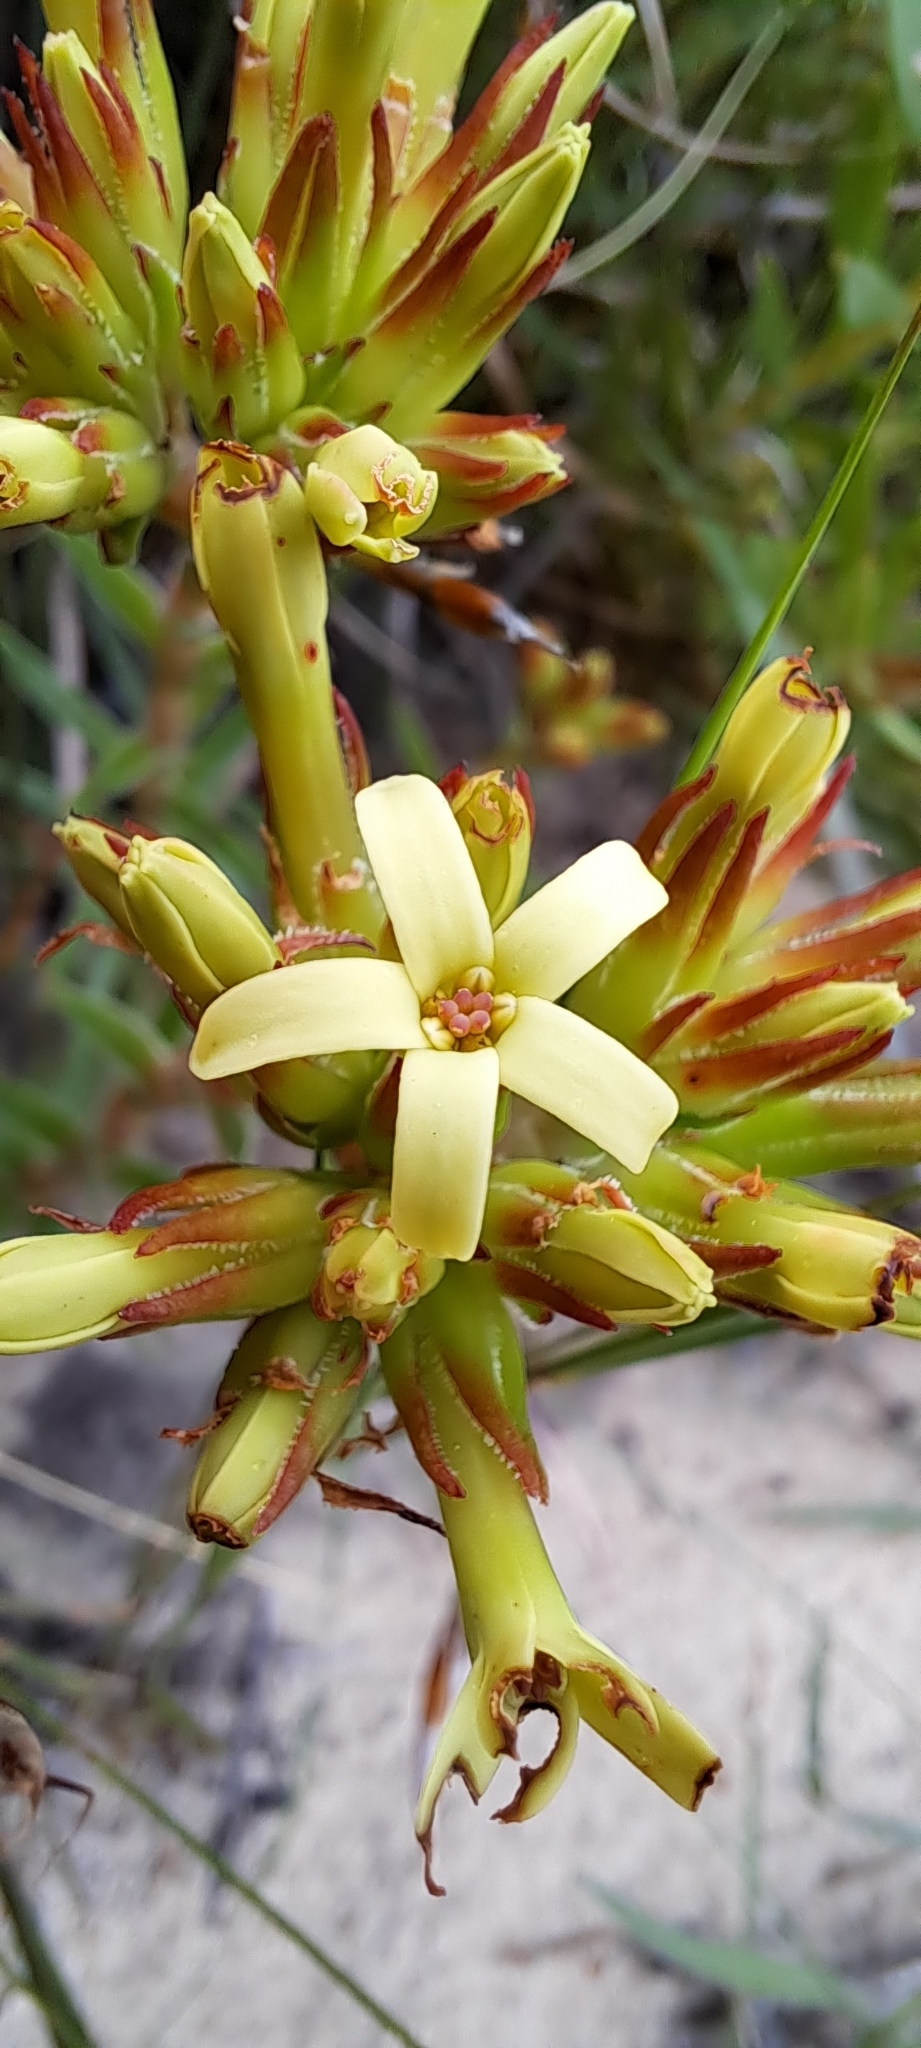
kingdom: Plantae
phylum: Tracheophyta
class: Magnoliopsida
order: Saxifragales
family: Crassulaceae
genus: Crassula
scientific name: Crassula fascicularis
